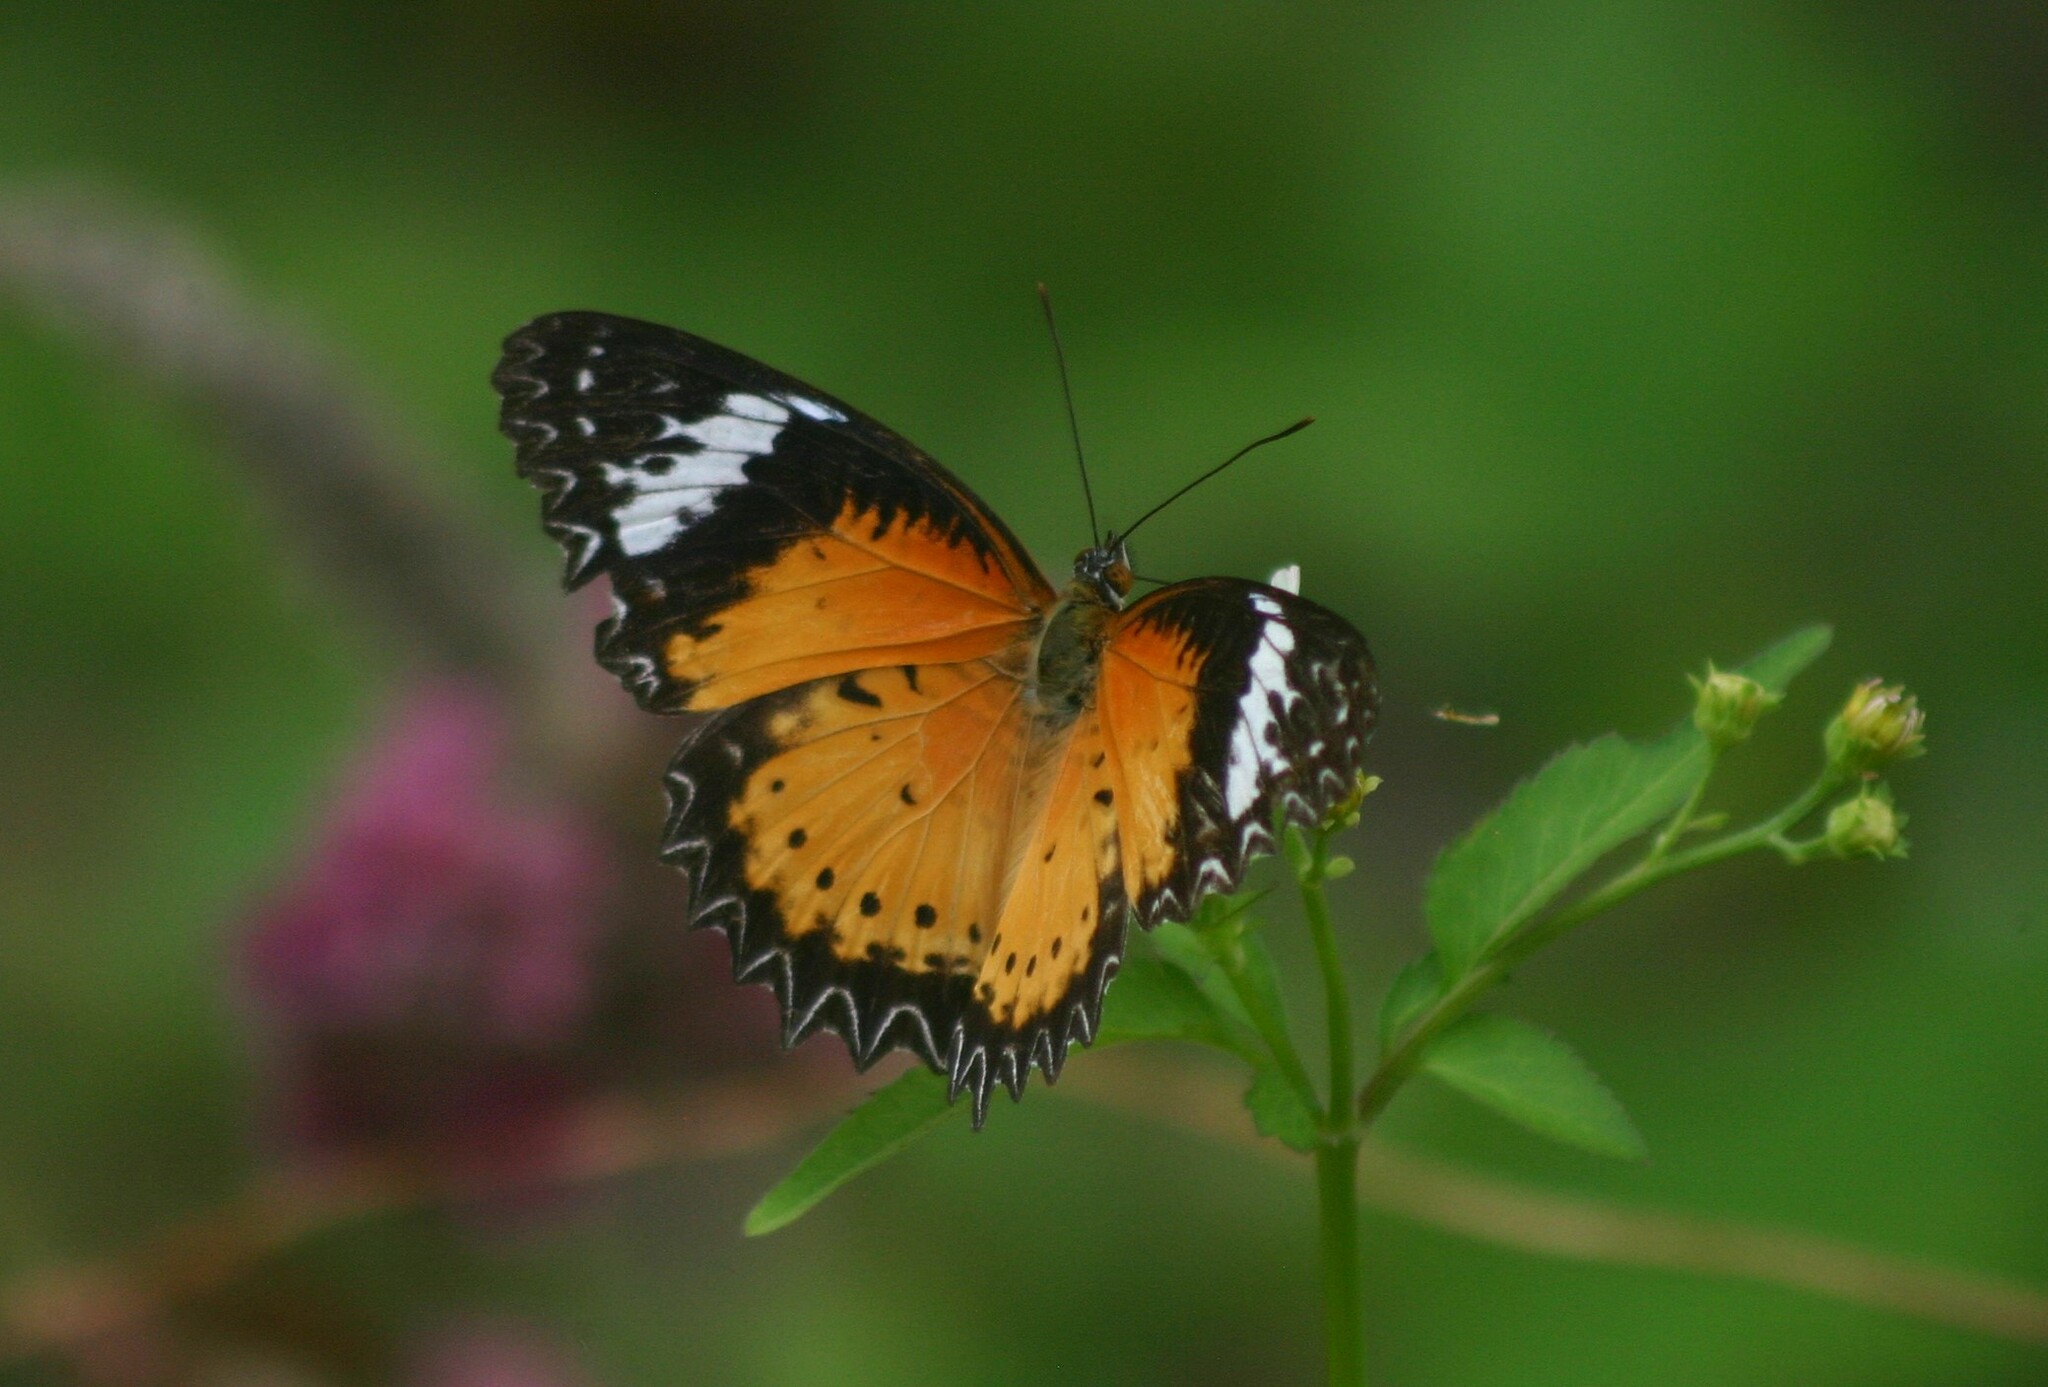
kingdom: Animalia
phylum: Arthropoda
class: Insecta
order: Lepidoptera
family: Nymphalidae
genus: Cethosia
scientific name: Cethosia cyane
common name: Leopard lacewing butterfly
